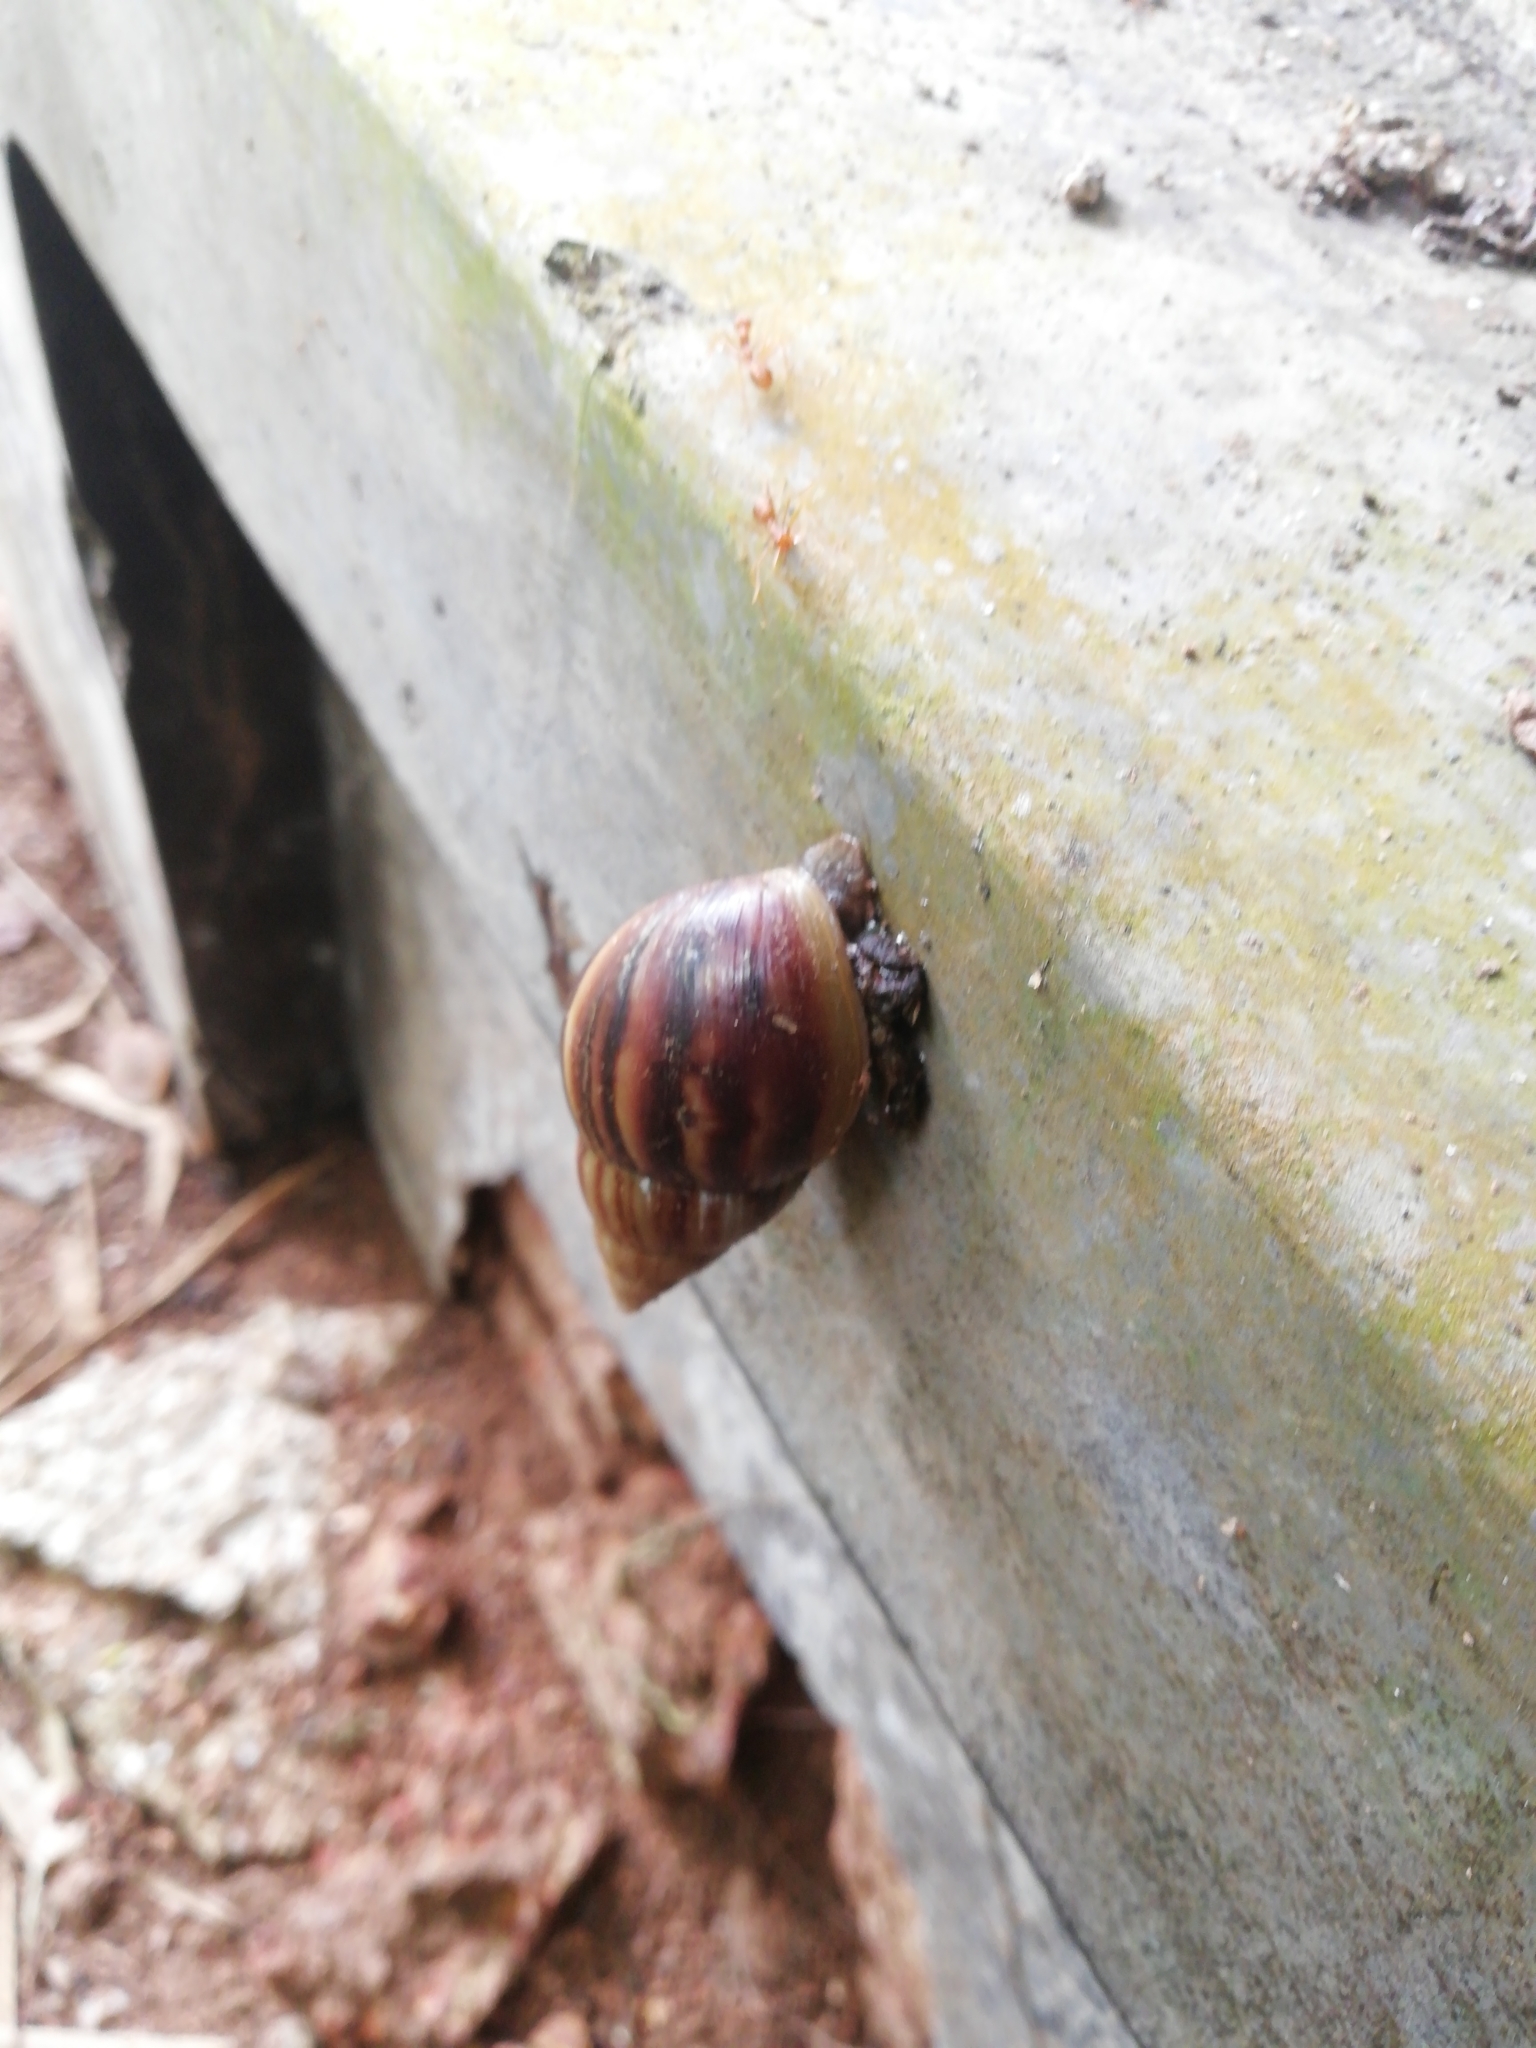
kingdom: Animalia
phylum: Mollusca
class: Gastropoda
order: Stylommatophora
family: Achatinidae
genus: Lissachatina
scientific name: Lissachatina fulica
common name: Giant african snail
